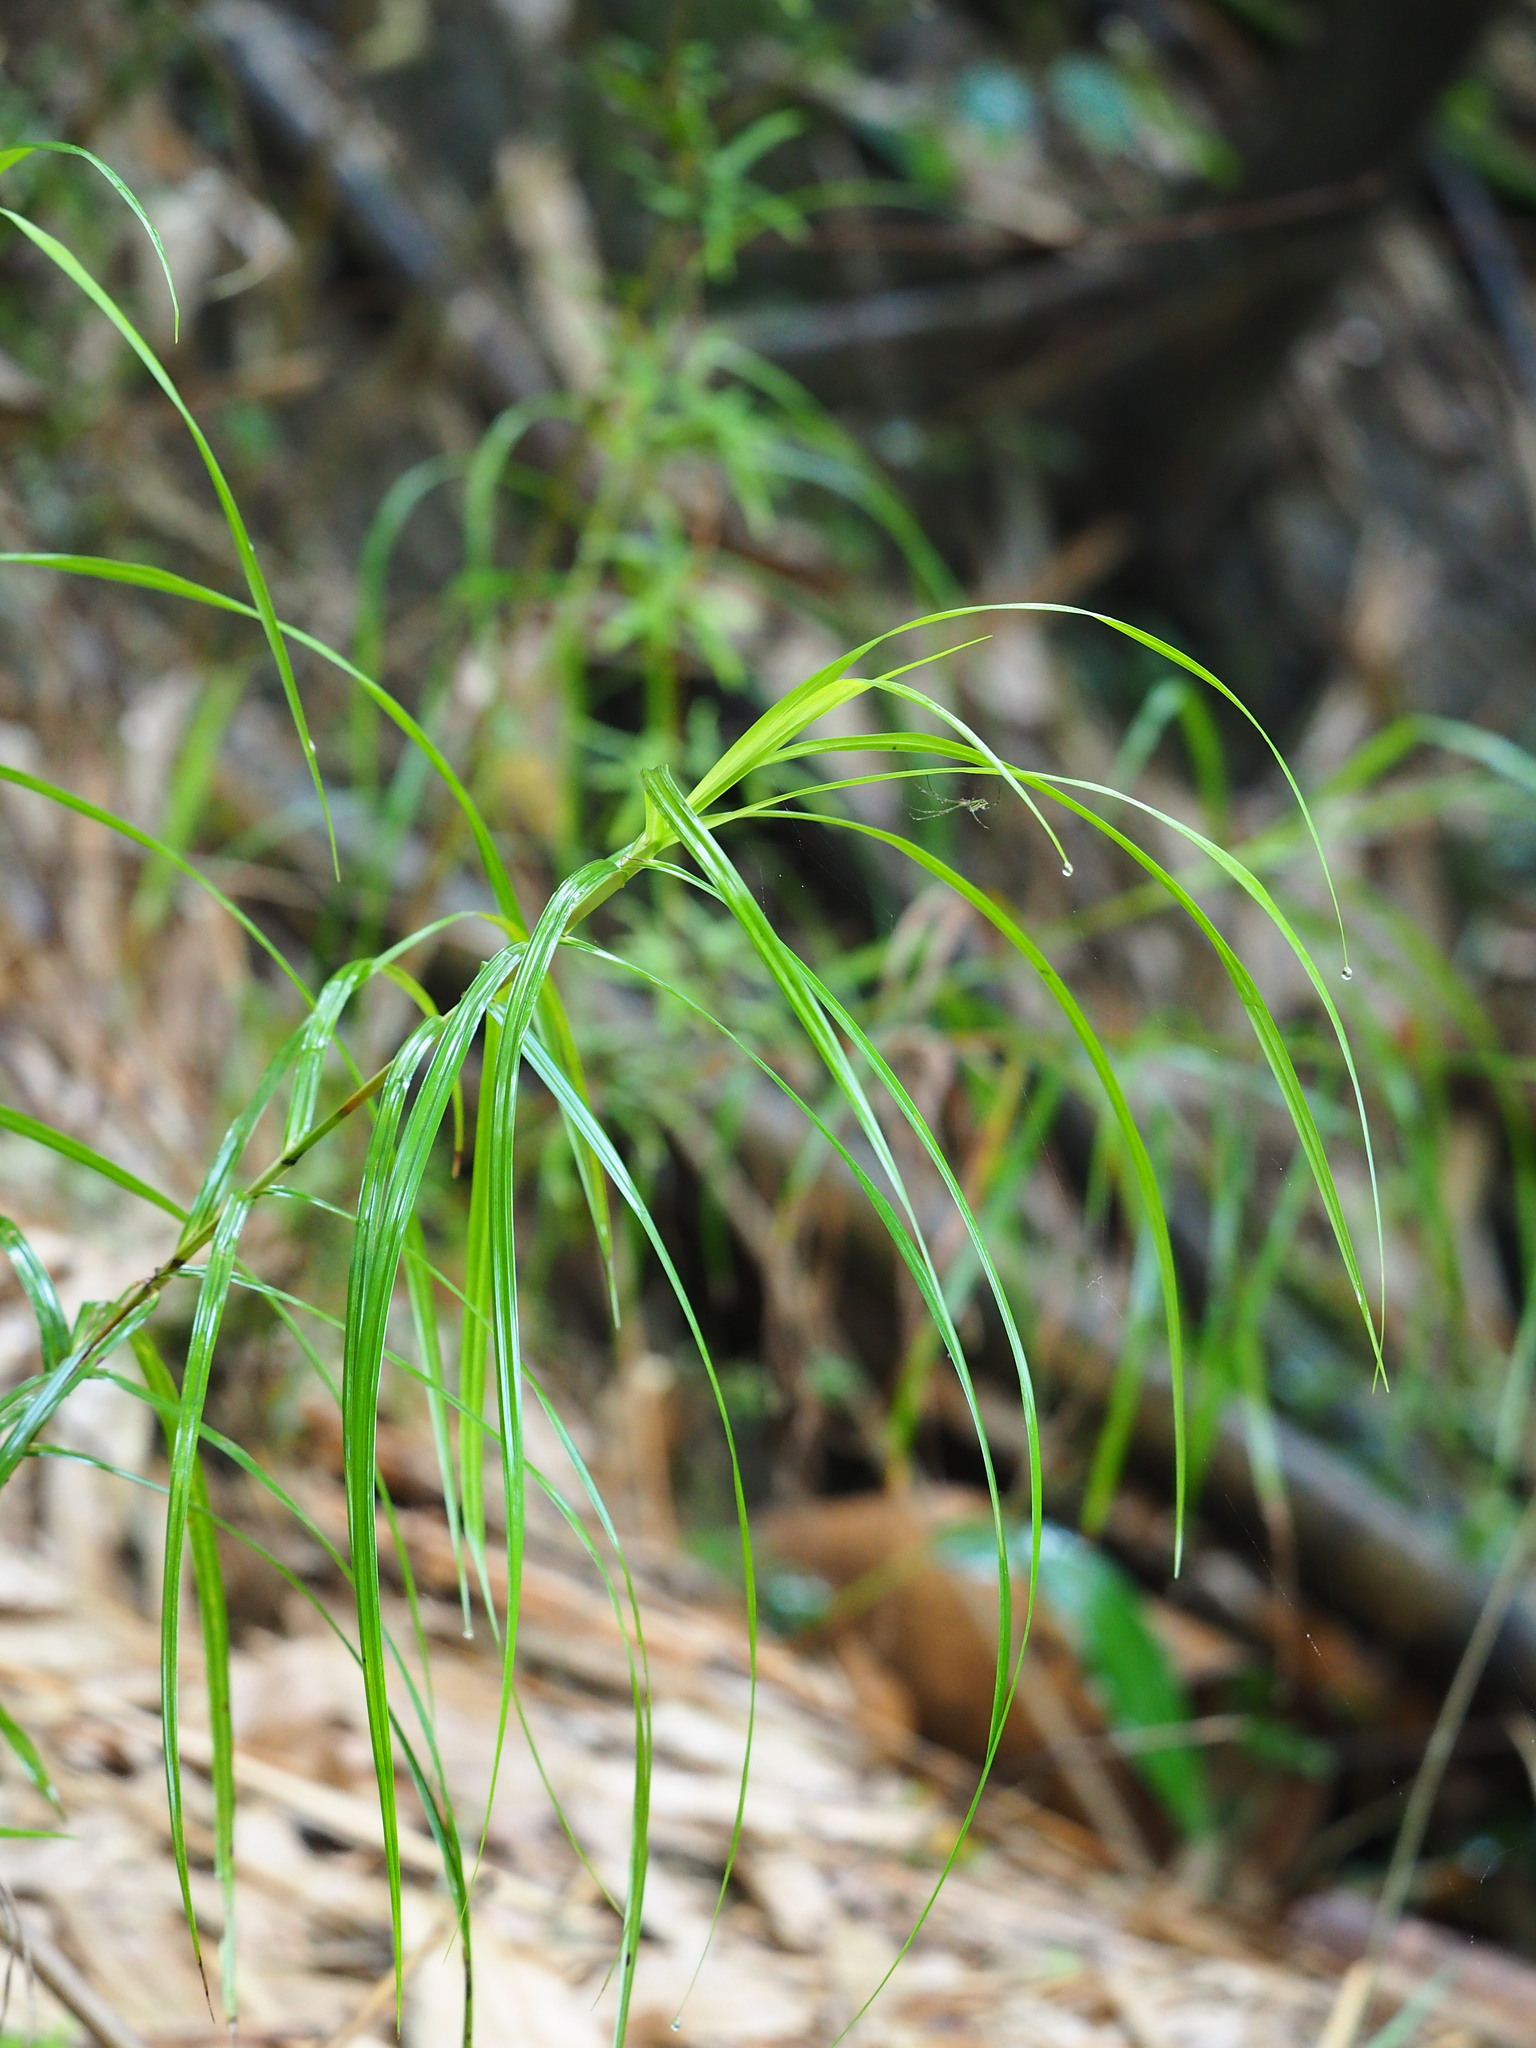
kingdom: Plantae
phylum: Tracheophyta
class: Liliopsida
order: Poales
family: Cyperaceae
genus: Scleria
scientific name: Scleria terrestris
